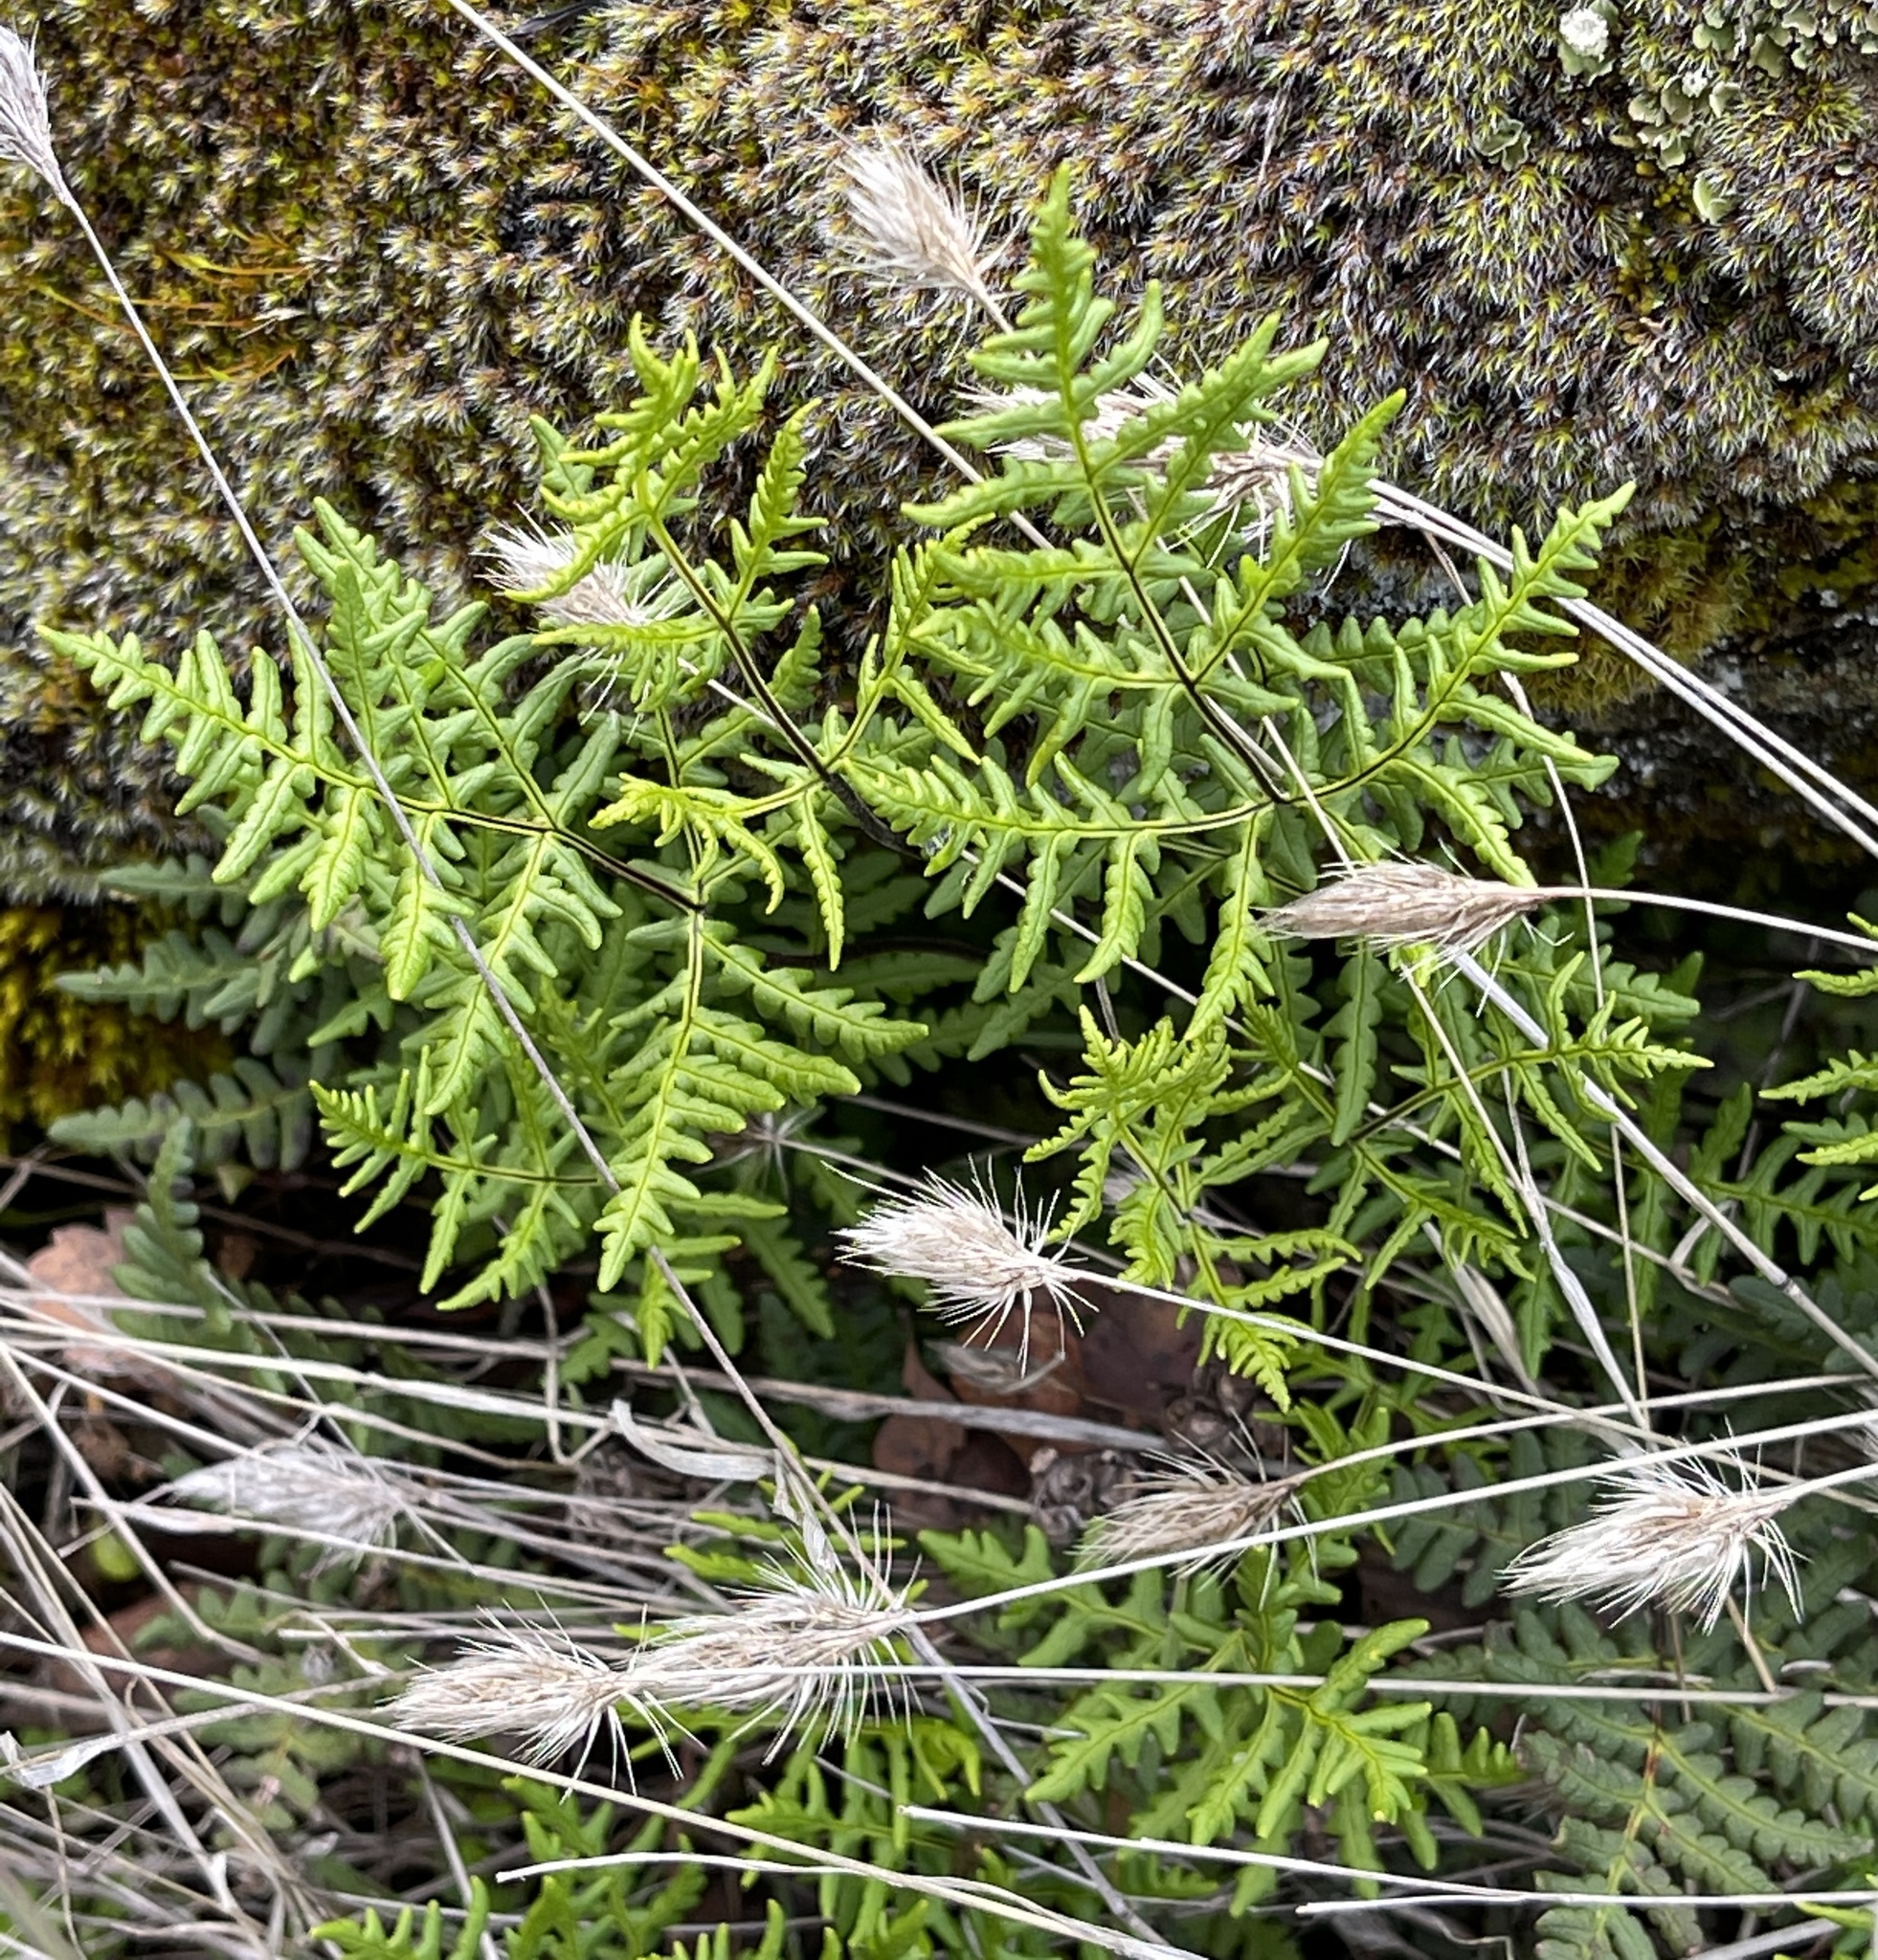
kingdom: Plantae
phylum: Tracheophyta
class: Polypodiopsida
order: Polypodiales
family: Pteridaceae
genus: Pentagramma
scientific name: Pentagramma triangularis
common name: Gold fern
